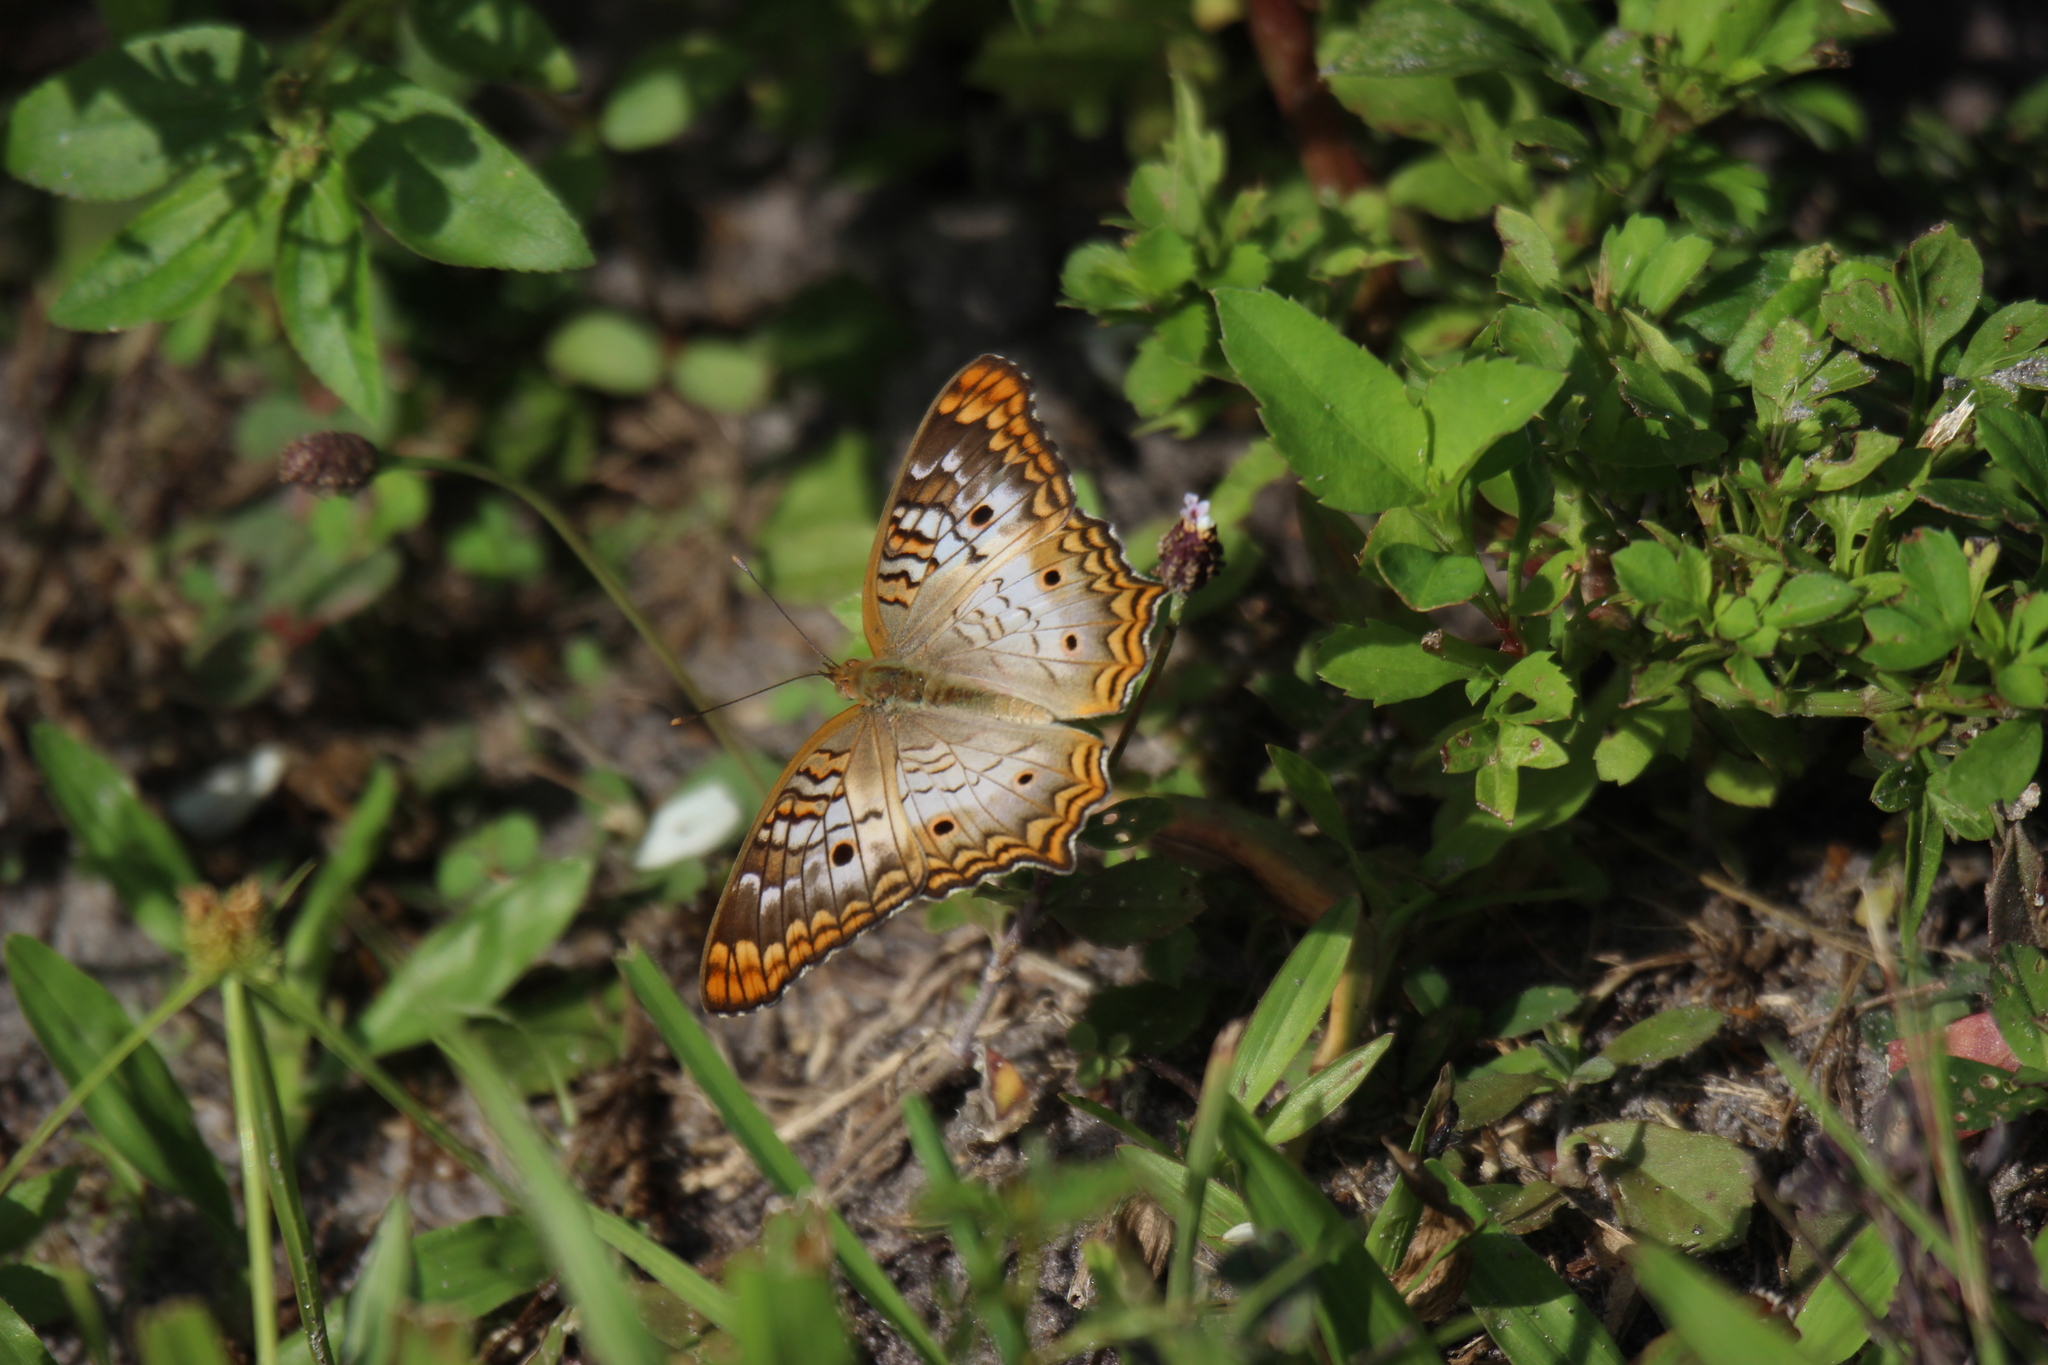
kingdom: Animalia
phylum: Arthropoda
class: Insecta
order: Lepidoptera
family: Nymphalidae
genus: Anartia
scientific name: Anartia jatrophae
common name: White peacock
